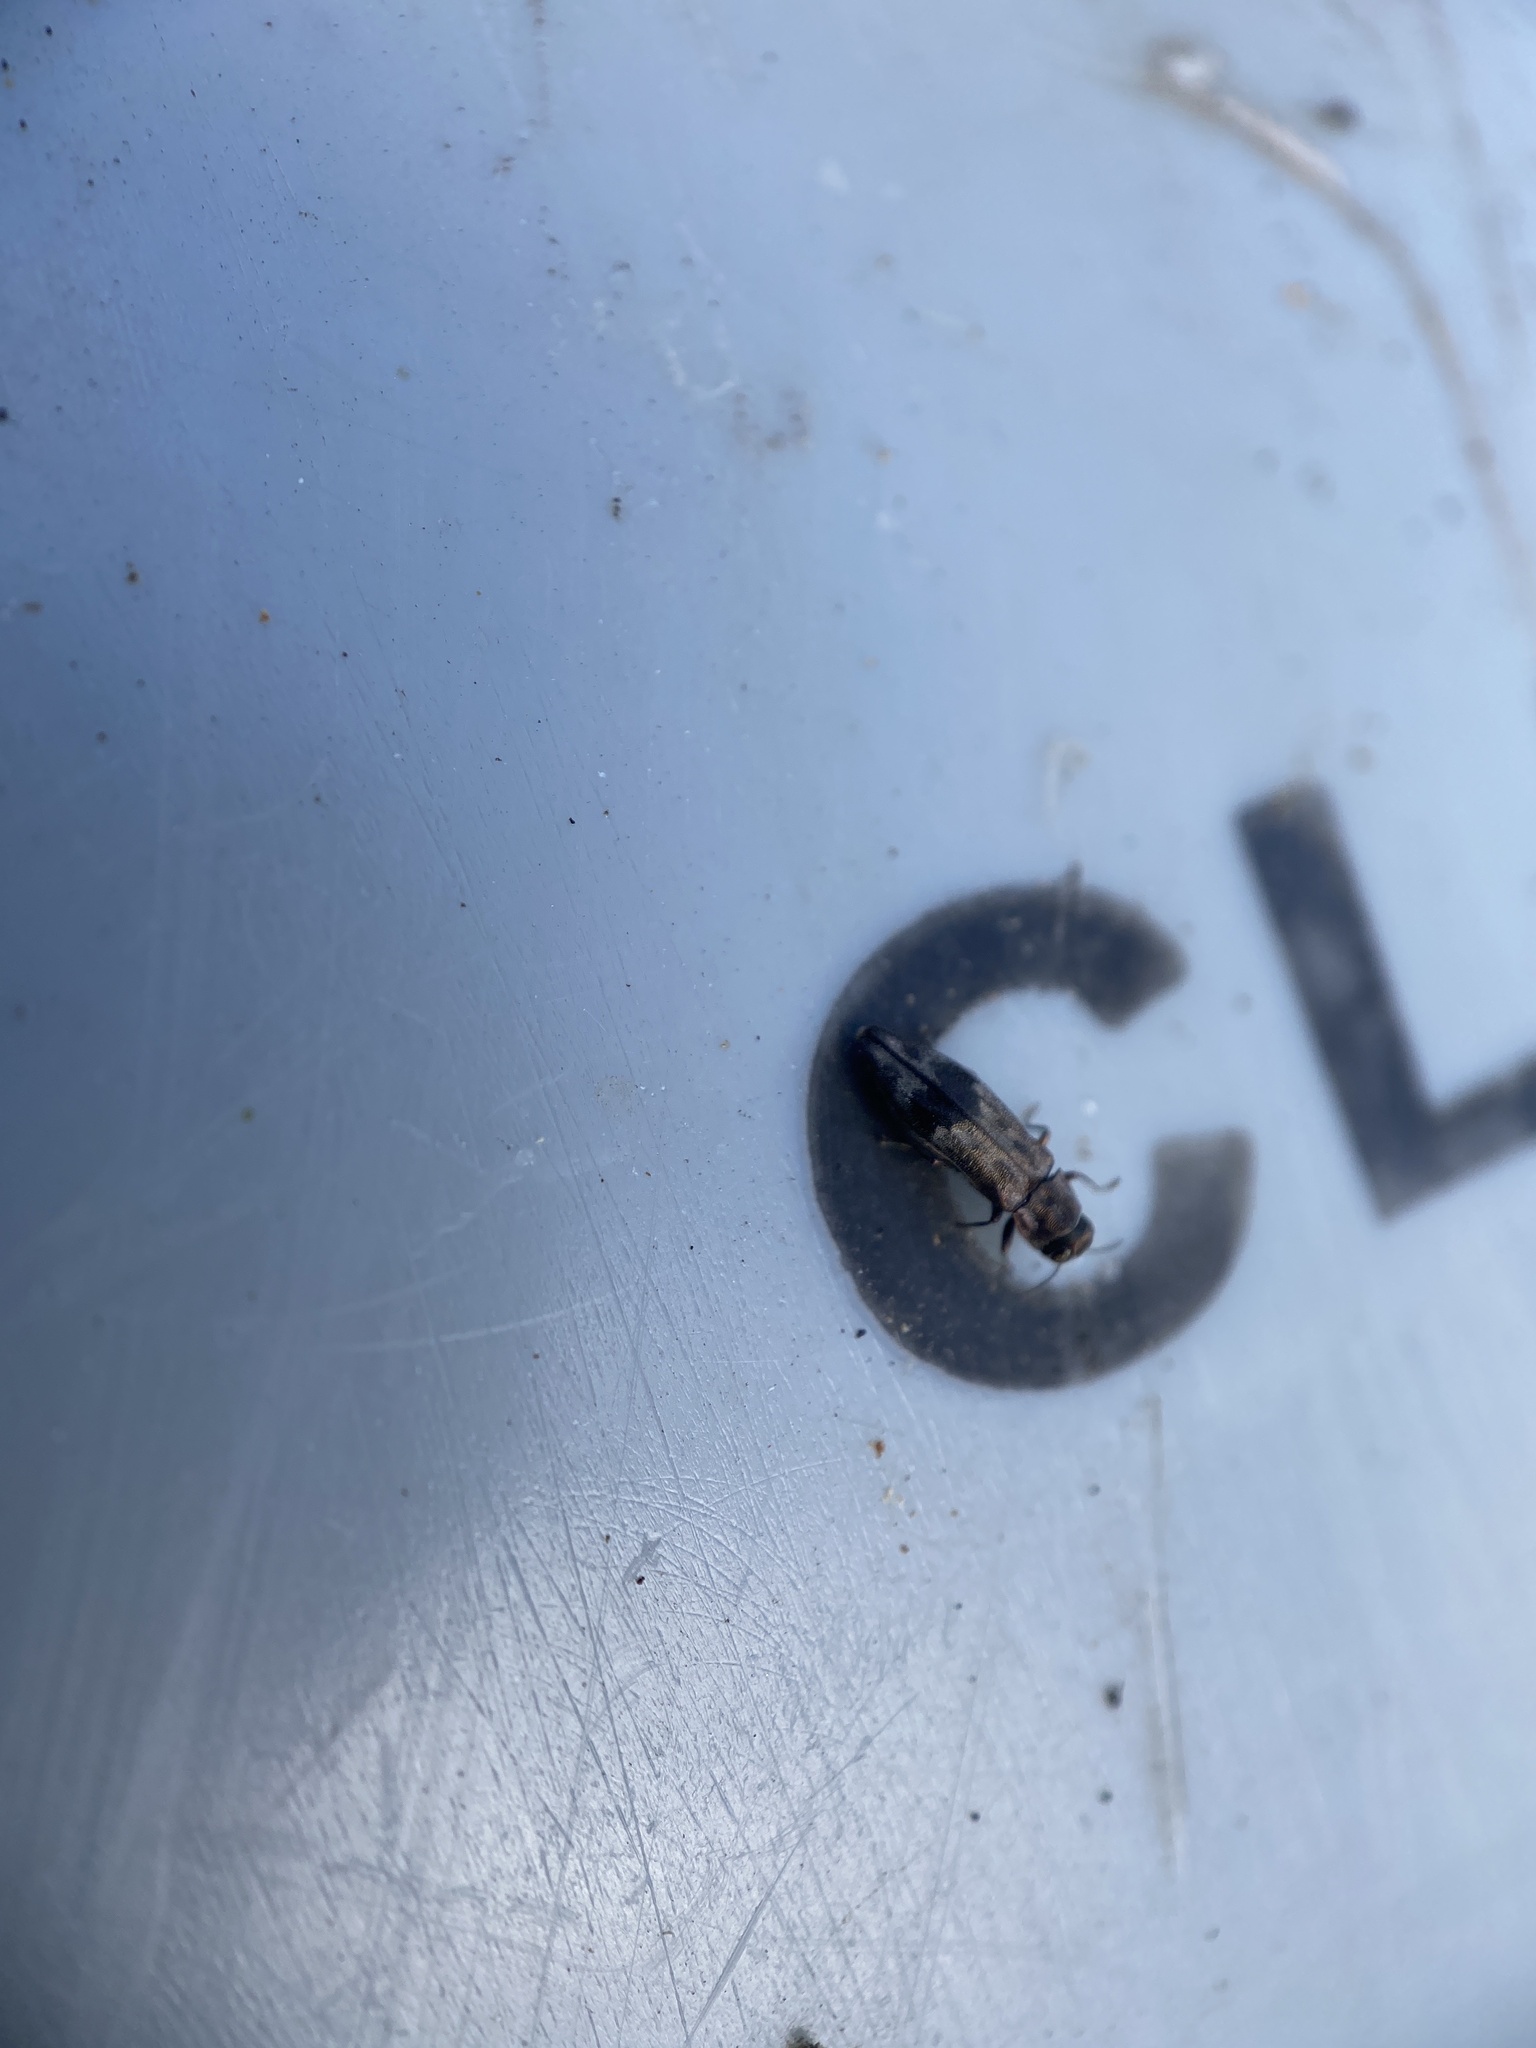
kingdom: Animalia
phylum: Arthropoda
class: Insecta
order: Coleoptera
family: Buprestidae
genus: Agrilus
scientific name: Agrilus lecontei
